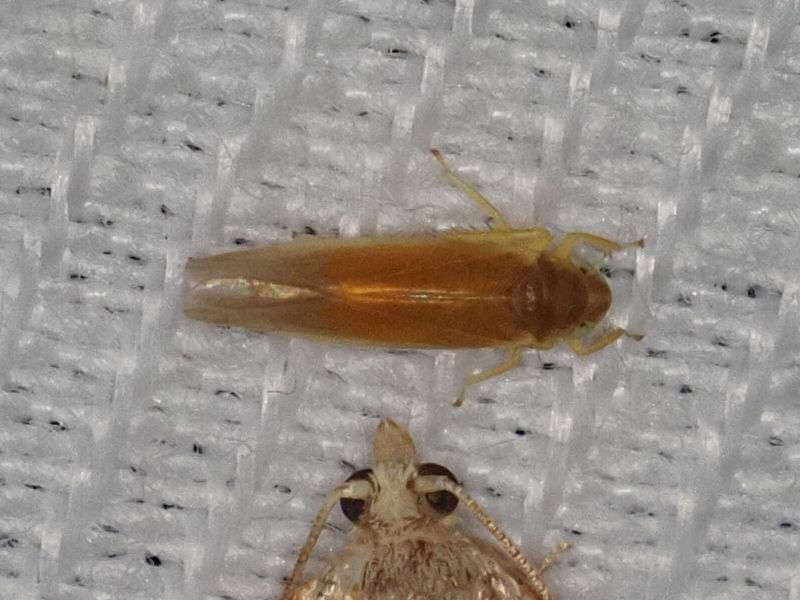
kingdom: Animalia
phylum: Arthropoda
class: Insecta
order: Hemiptera
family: Cicadellidae
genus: Fagocyba
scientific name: Fagocyba cruenta
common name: Leafhopper
